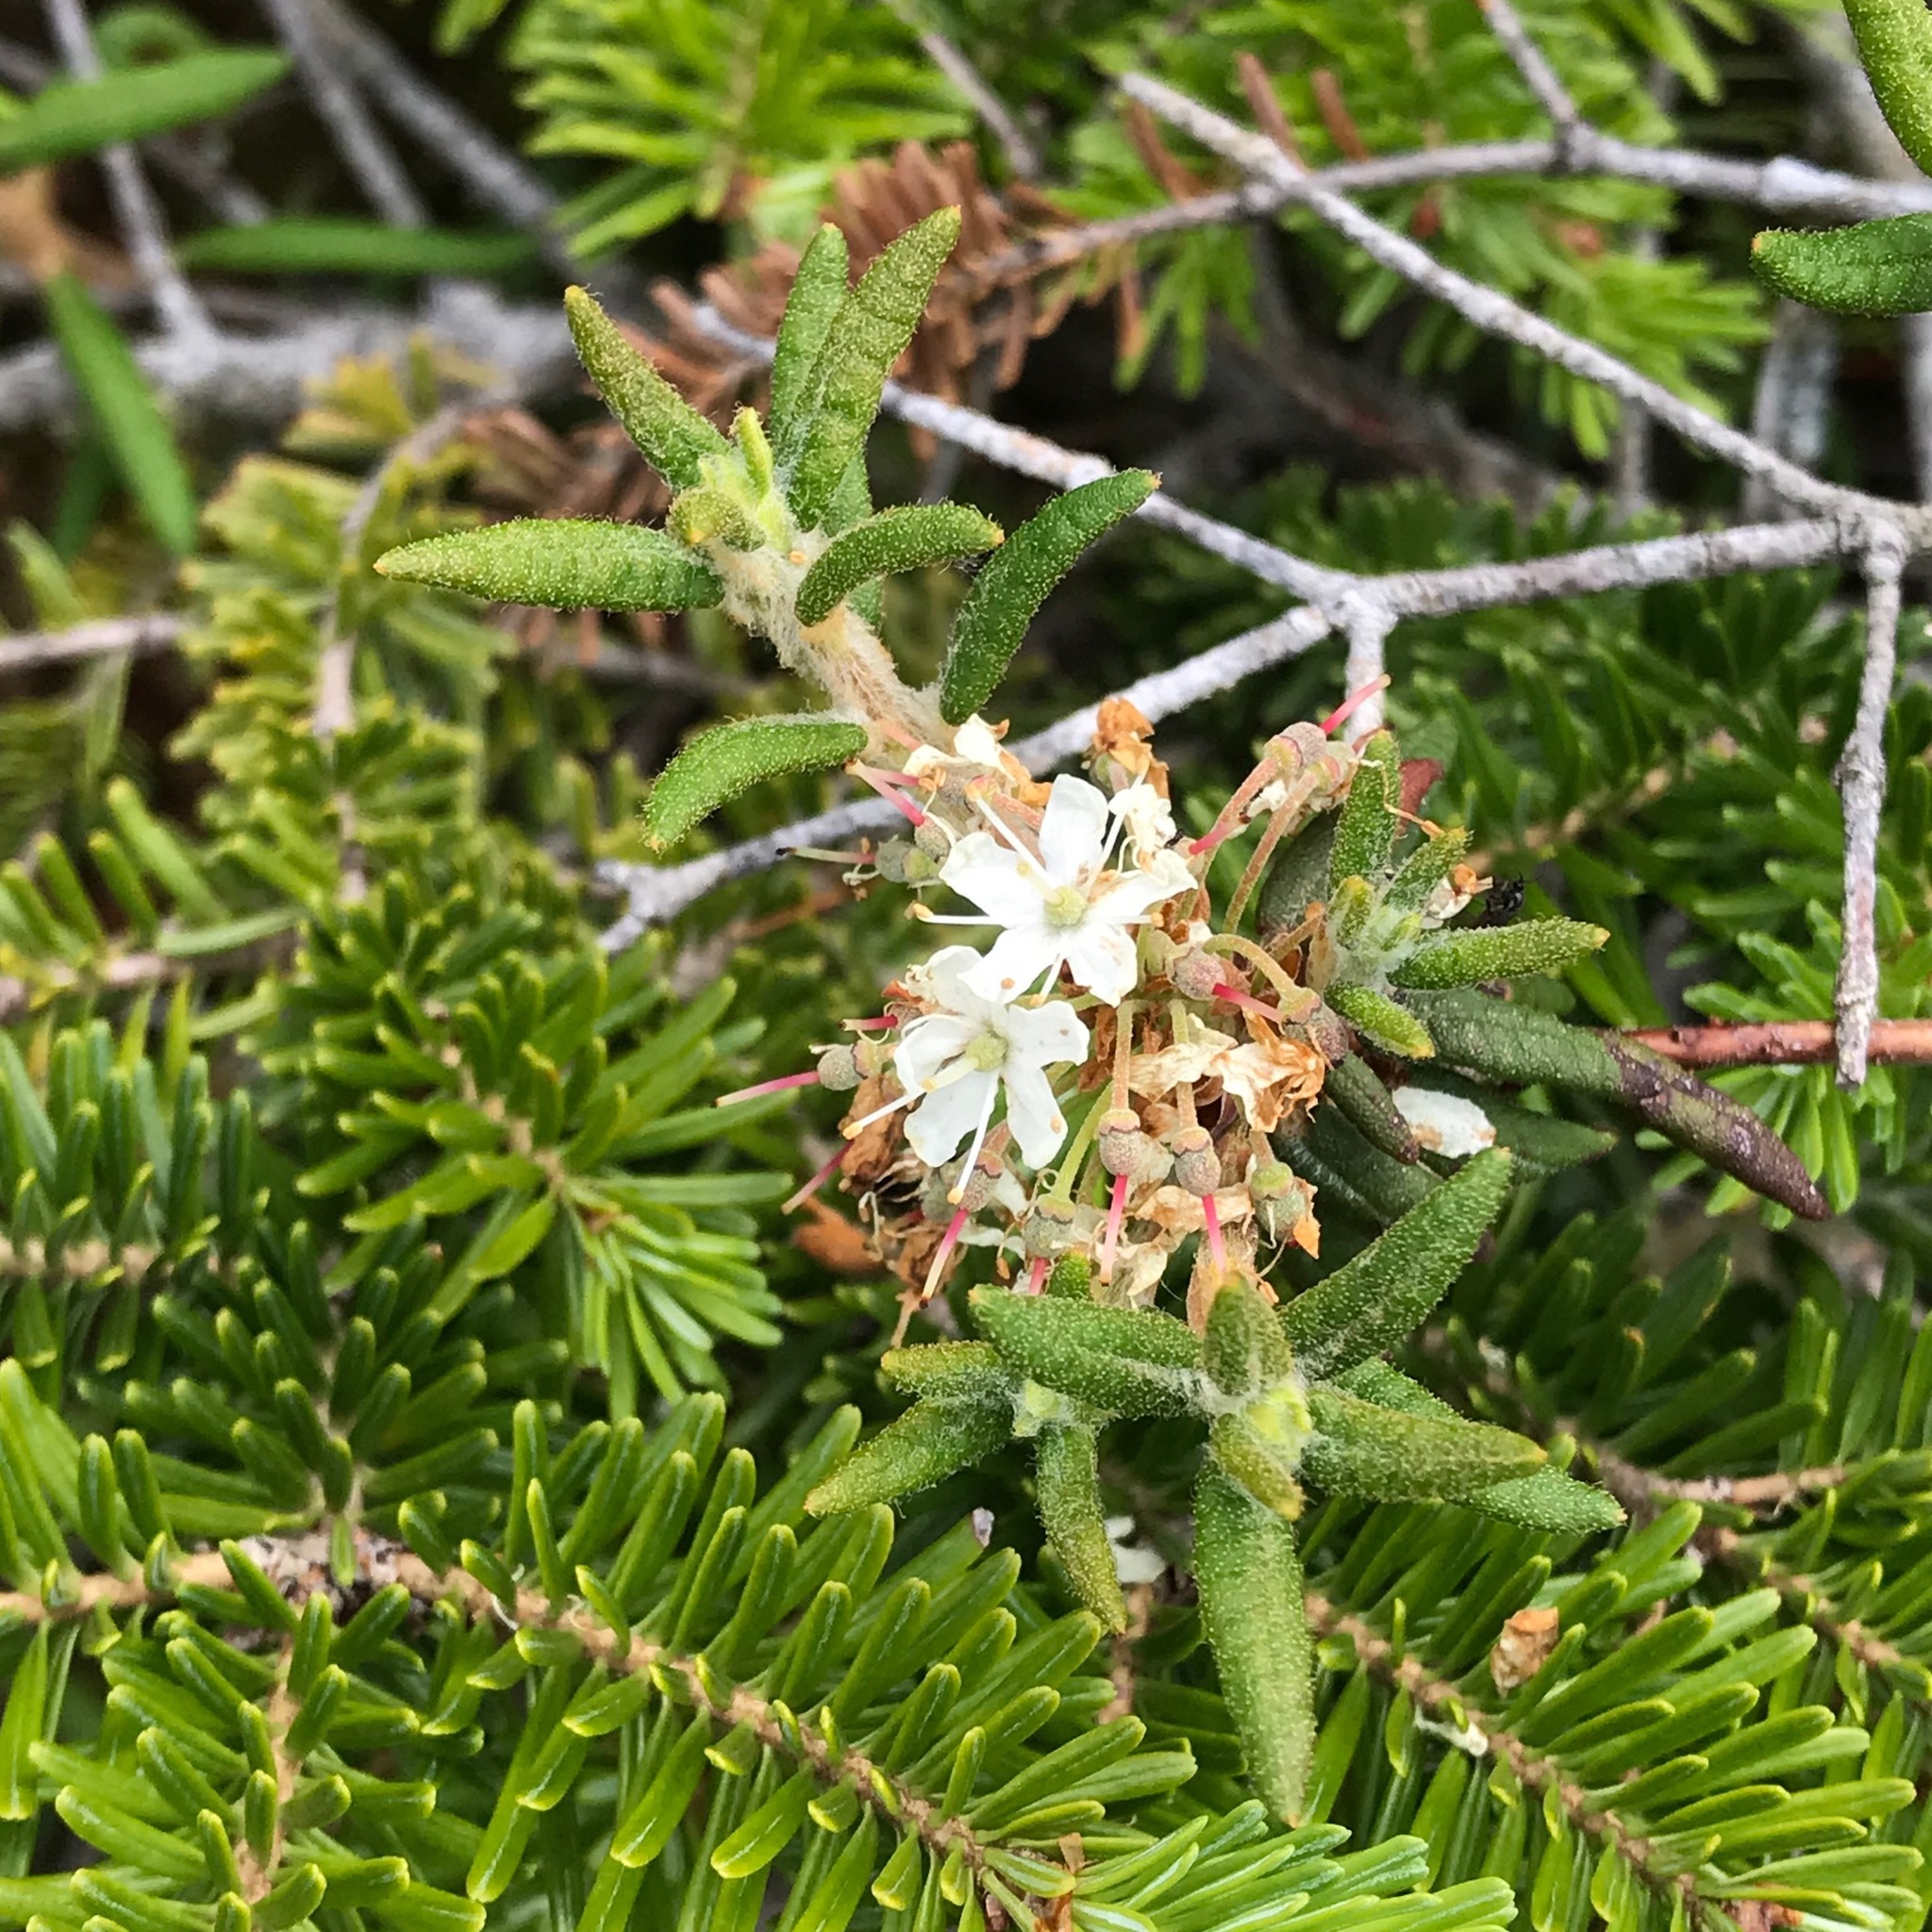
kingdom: Plantae
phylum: Tracheophyta
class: Magnoliopsida
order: Ericales
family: Ericaceae
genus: Rhododendron
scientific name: Rhododendron groenlandicum
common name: Bog labrador tea
